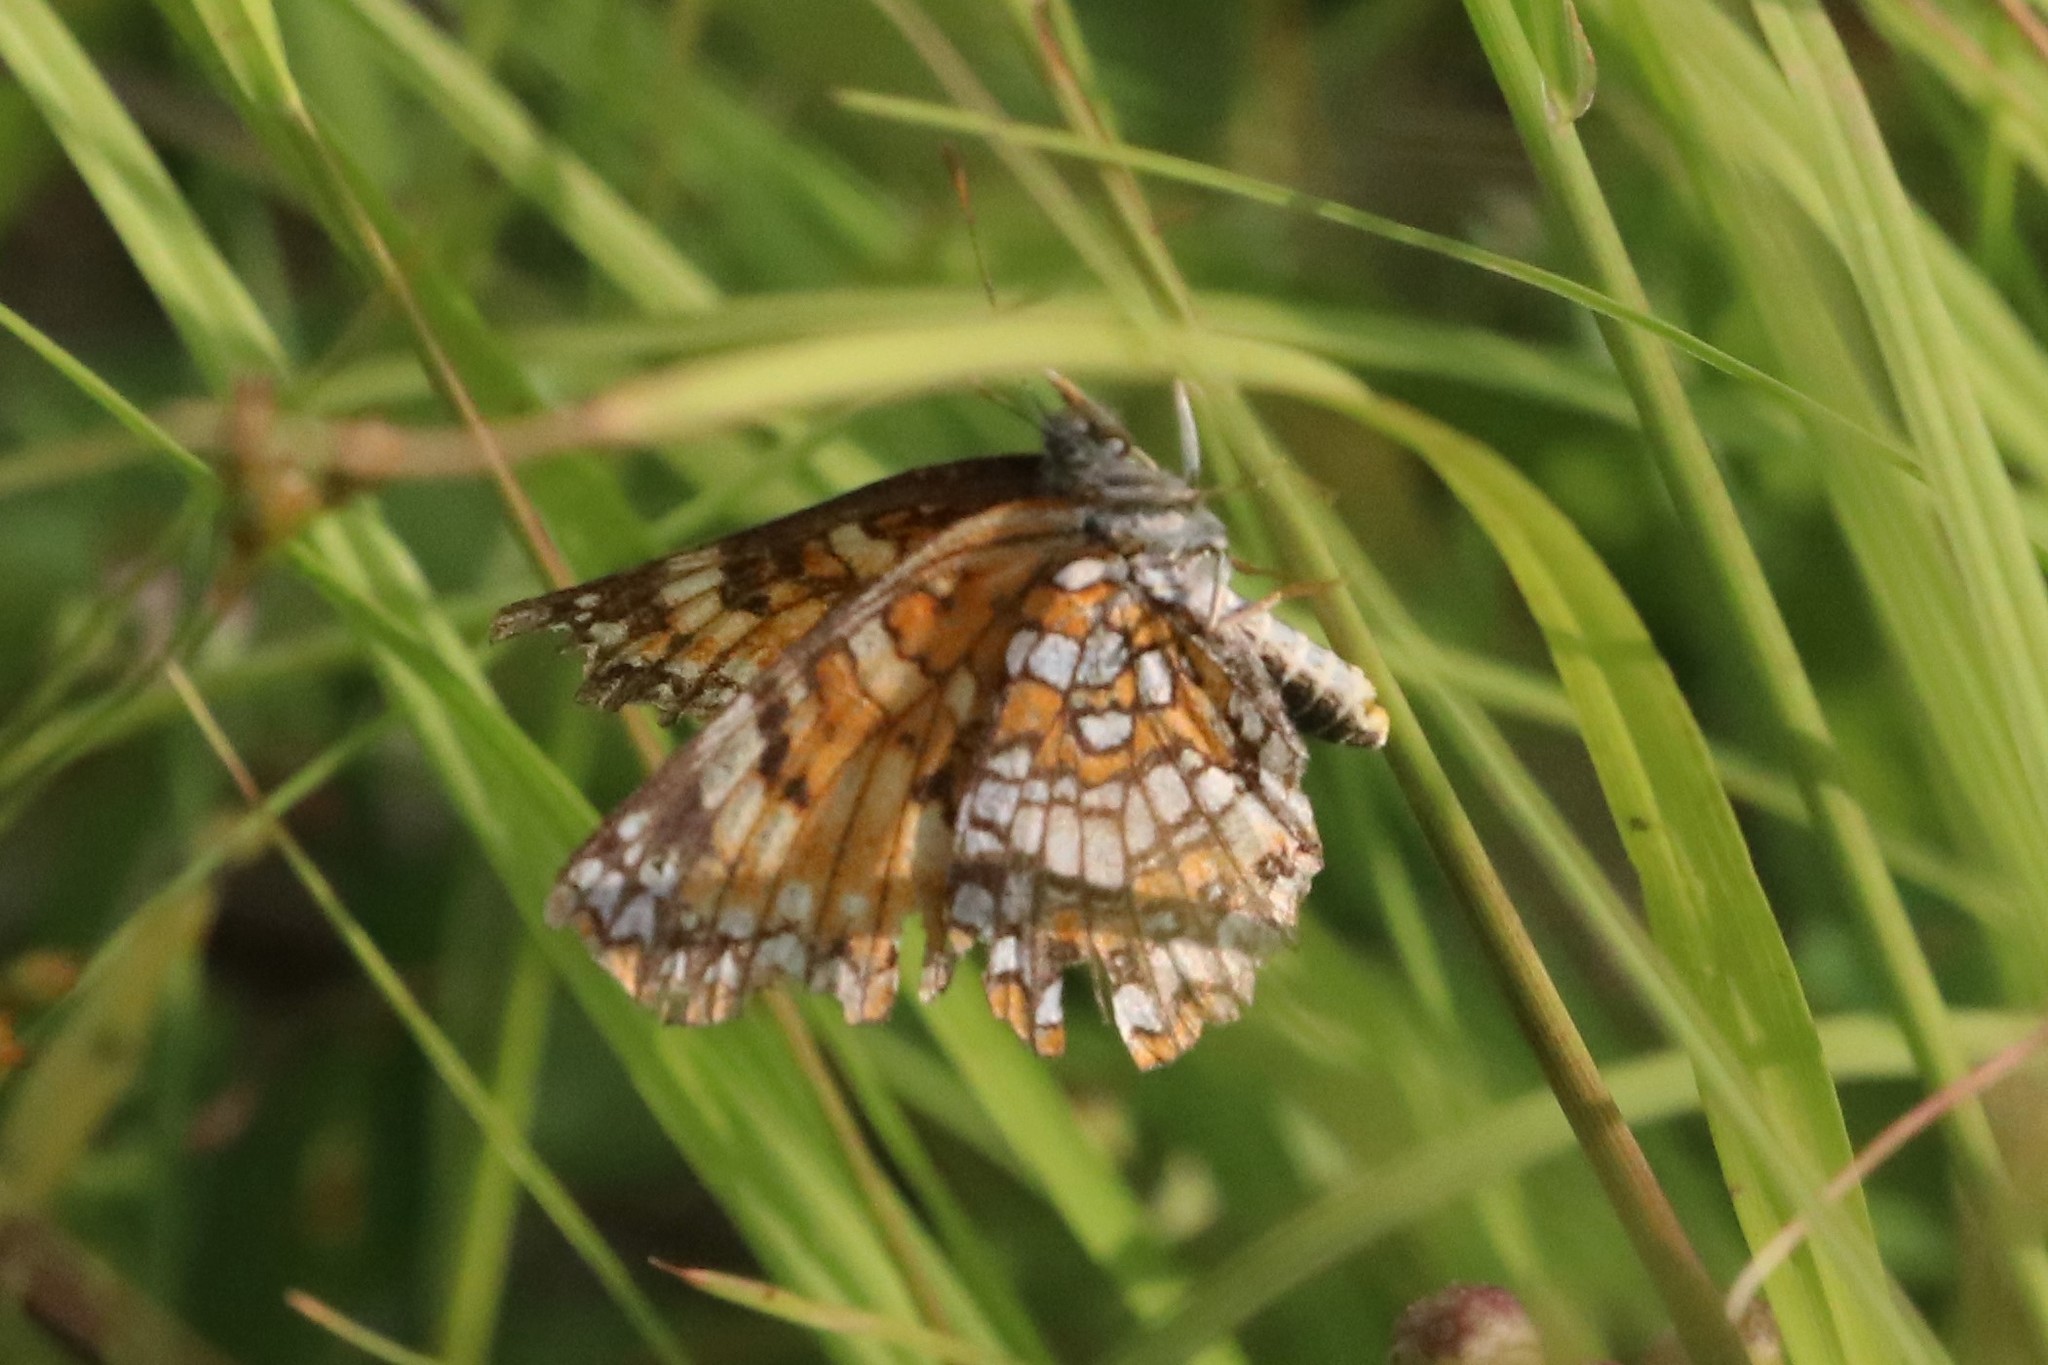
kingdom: Animalia
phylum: Arthropoda
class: Insecta
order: Lepidoptera
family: Nymphalidae
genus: Chlosyne
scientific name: Chlosyne harrisii
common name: Harris's checkerspot
